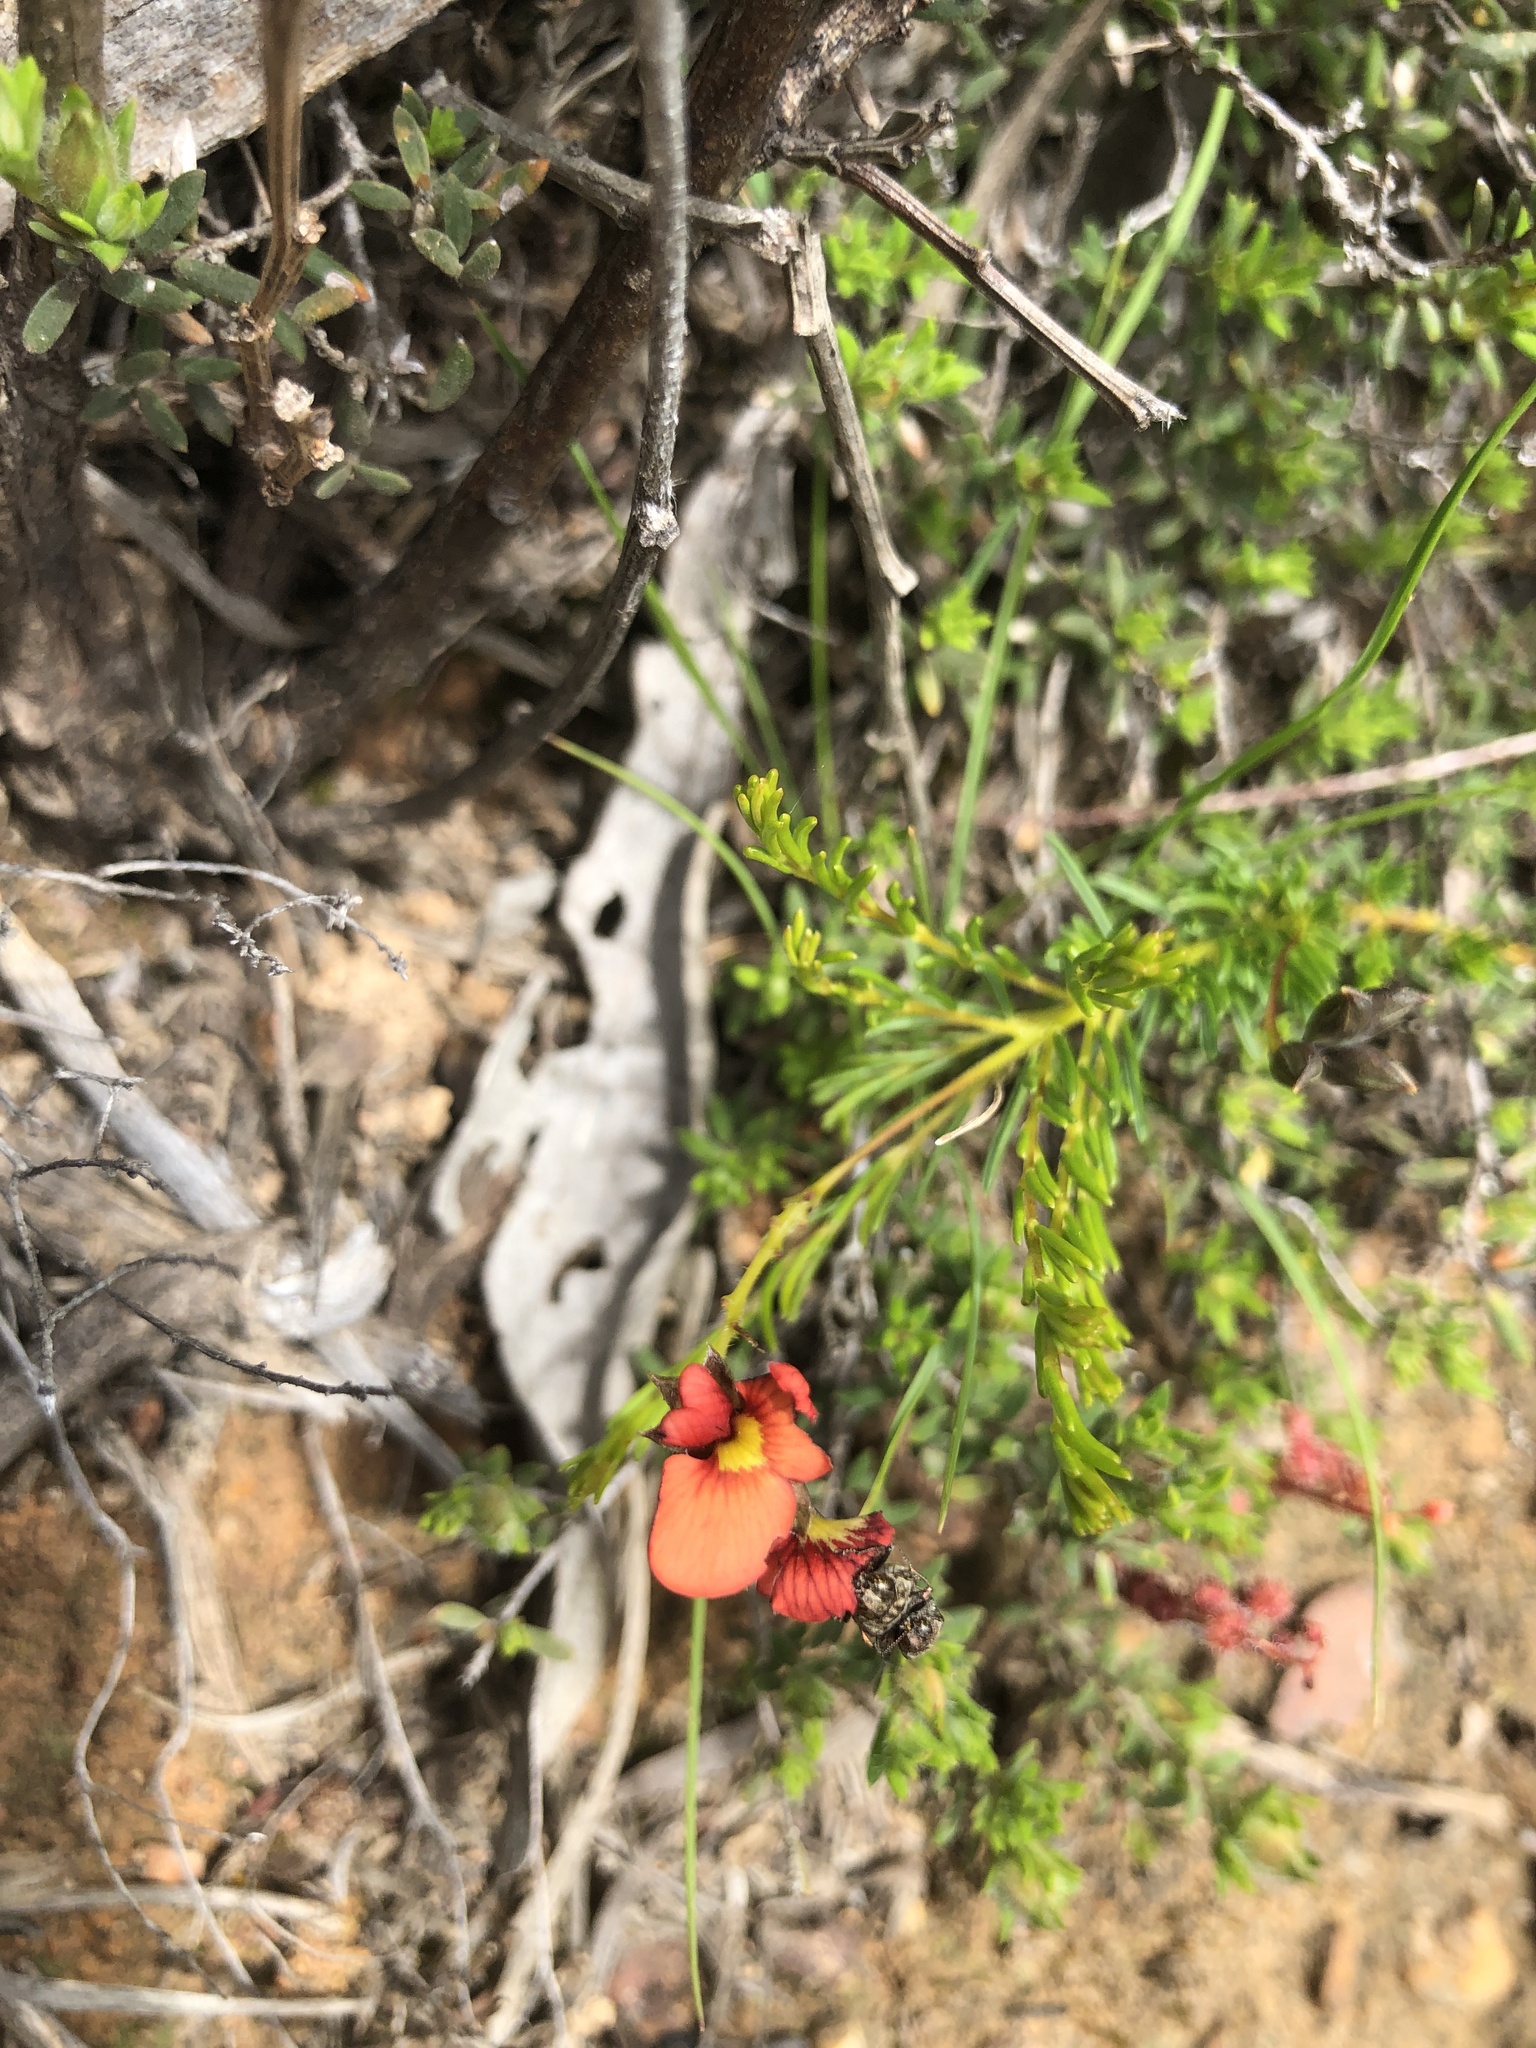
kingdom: Plantae
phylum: Tracheophyta
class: Magnoliopsida
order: Fabales
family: Fabaceae
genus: Dillwynia
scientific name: Dillwynia hispida
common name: Red parrot-pea
